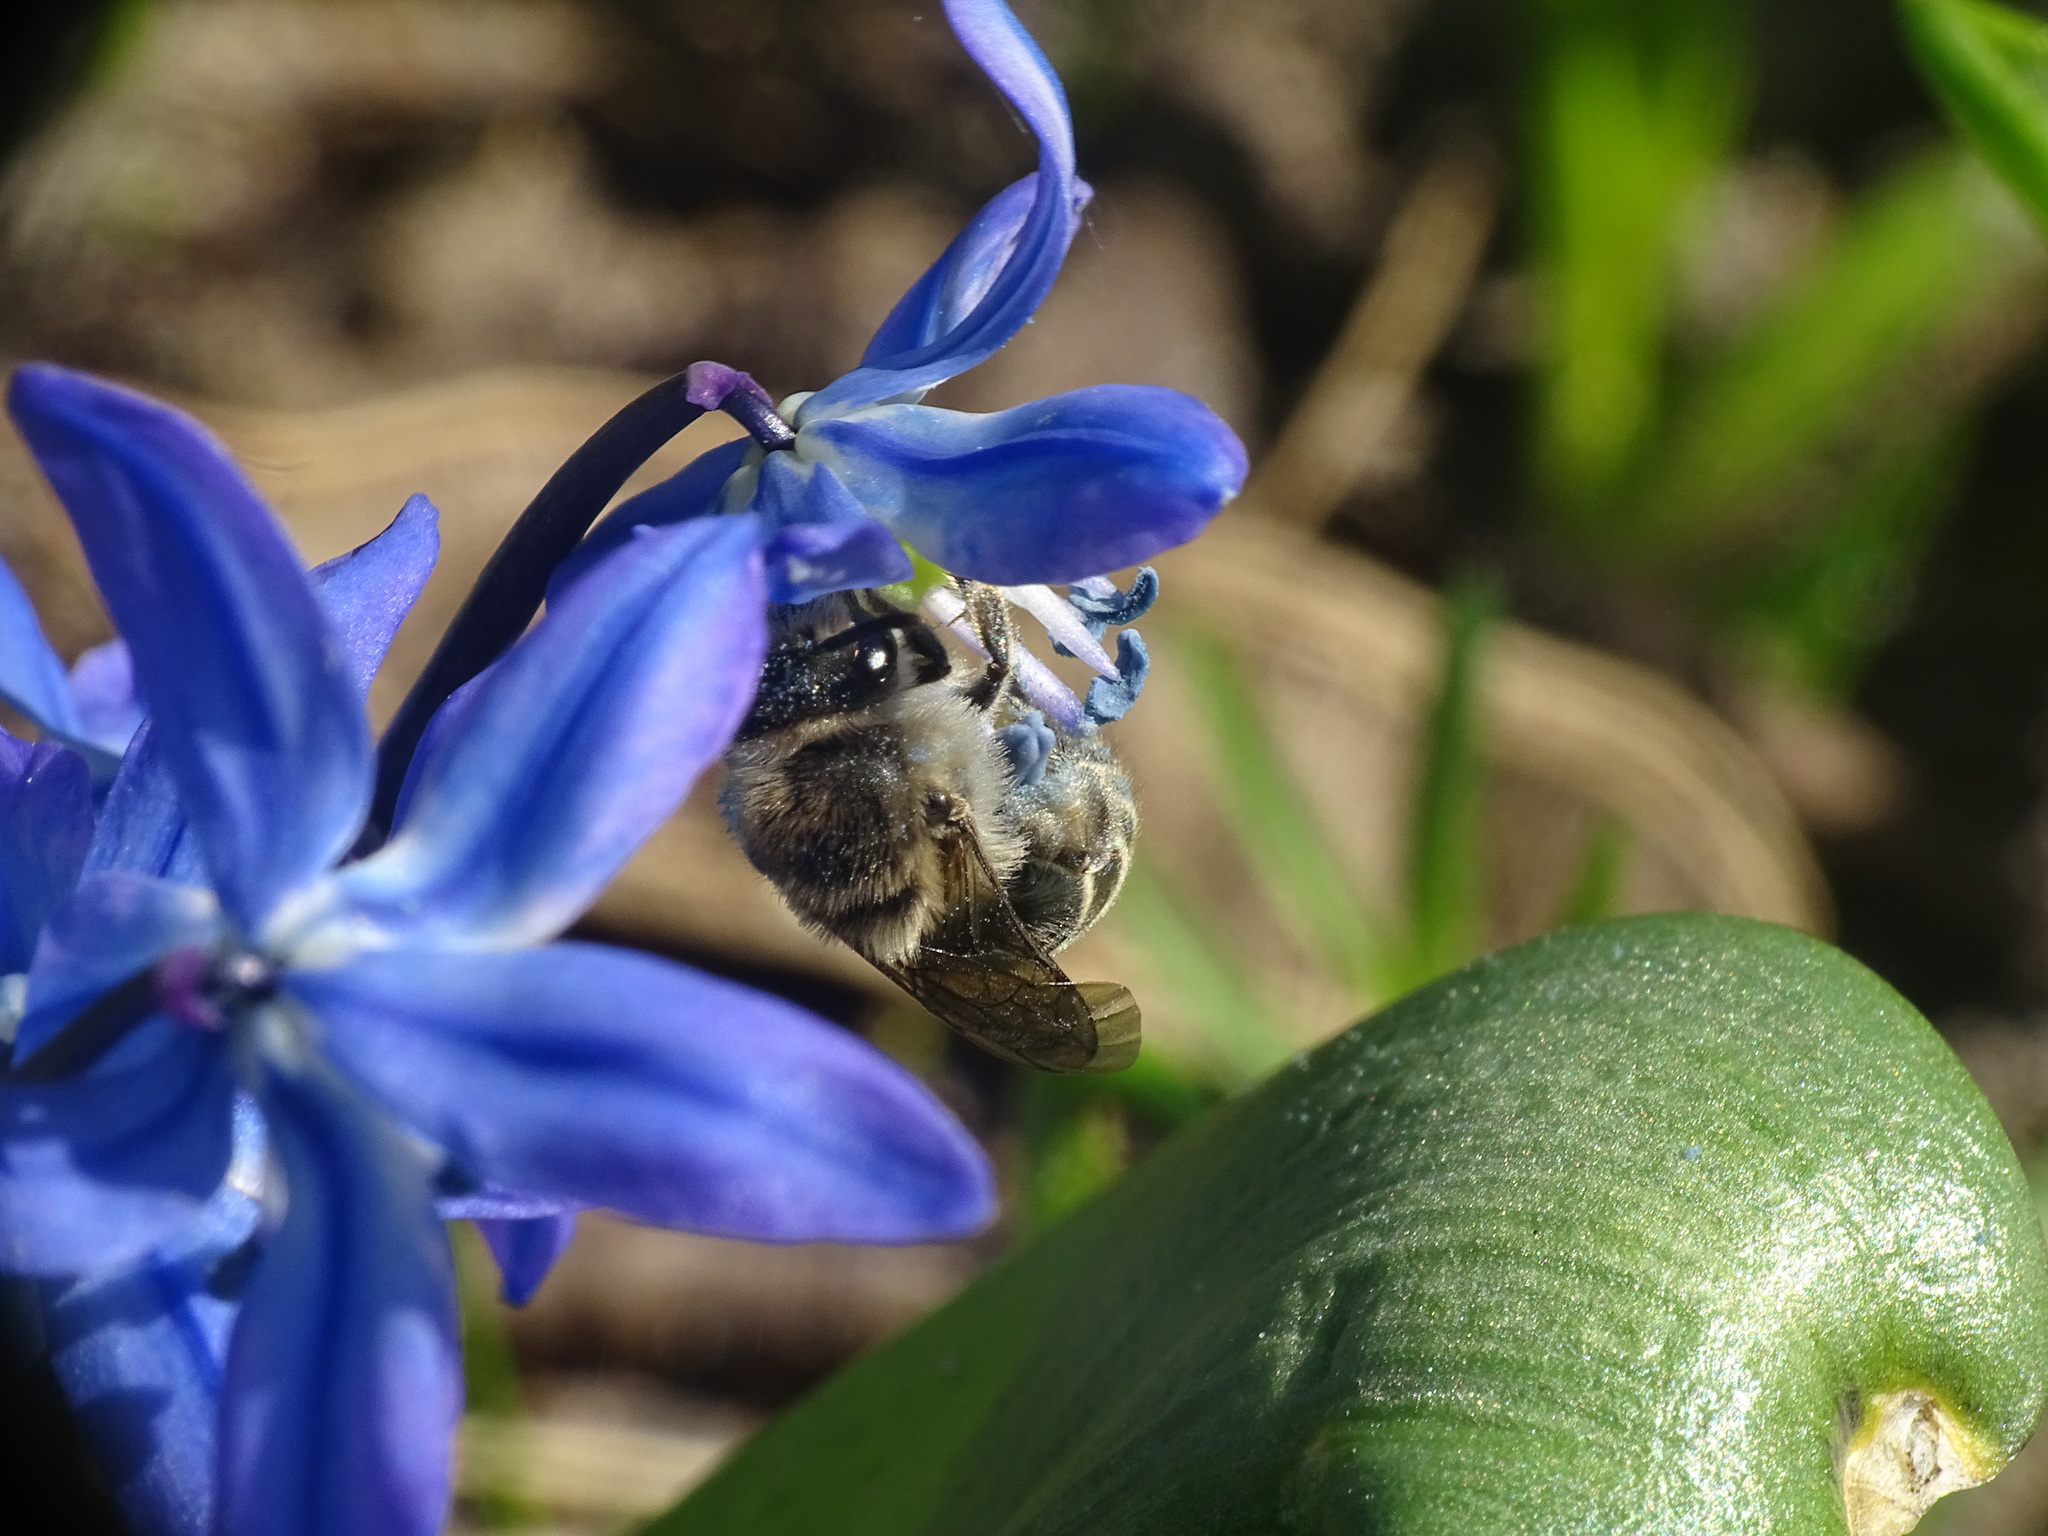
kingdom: Animalia
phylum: Arthropoda
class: Insecta
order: Hymenoptera
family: Colletidae
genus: Colletes
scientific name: Colletes inaequalis
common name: Unequal cellophane bee
